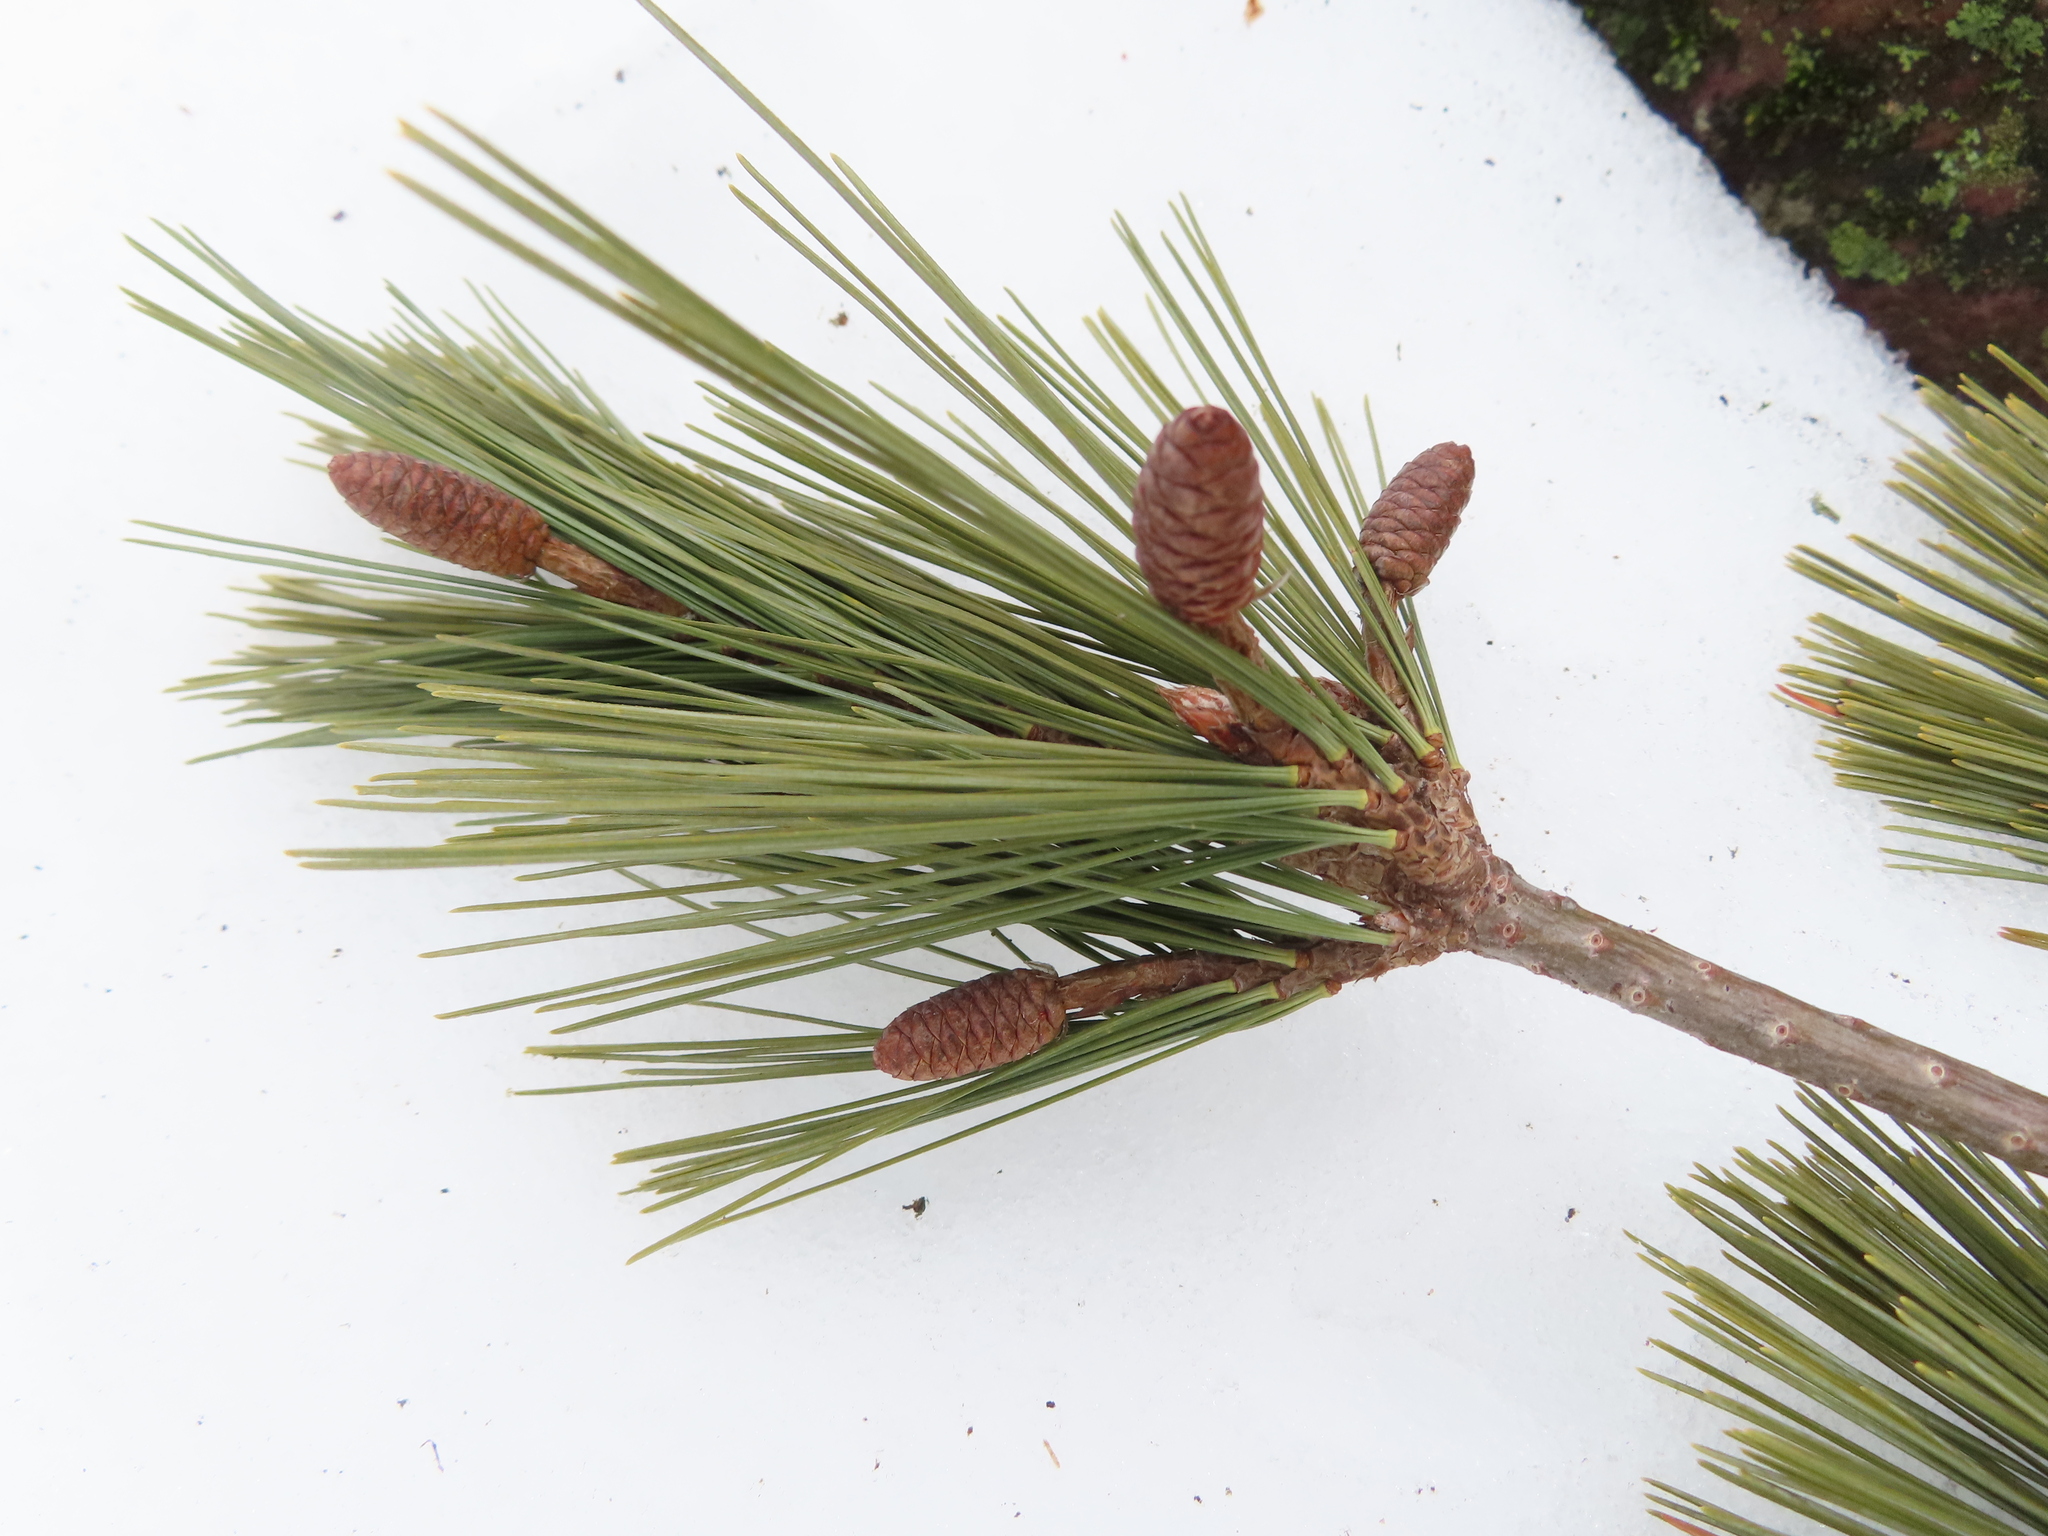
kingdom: Plantae
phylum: Tracheophyta
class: Pinopsida
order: Pinales
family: Pinaceae
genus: Pinus
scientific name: Pinus strobus
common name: Weymouth pine
